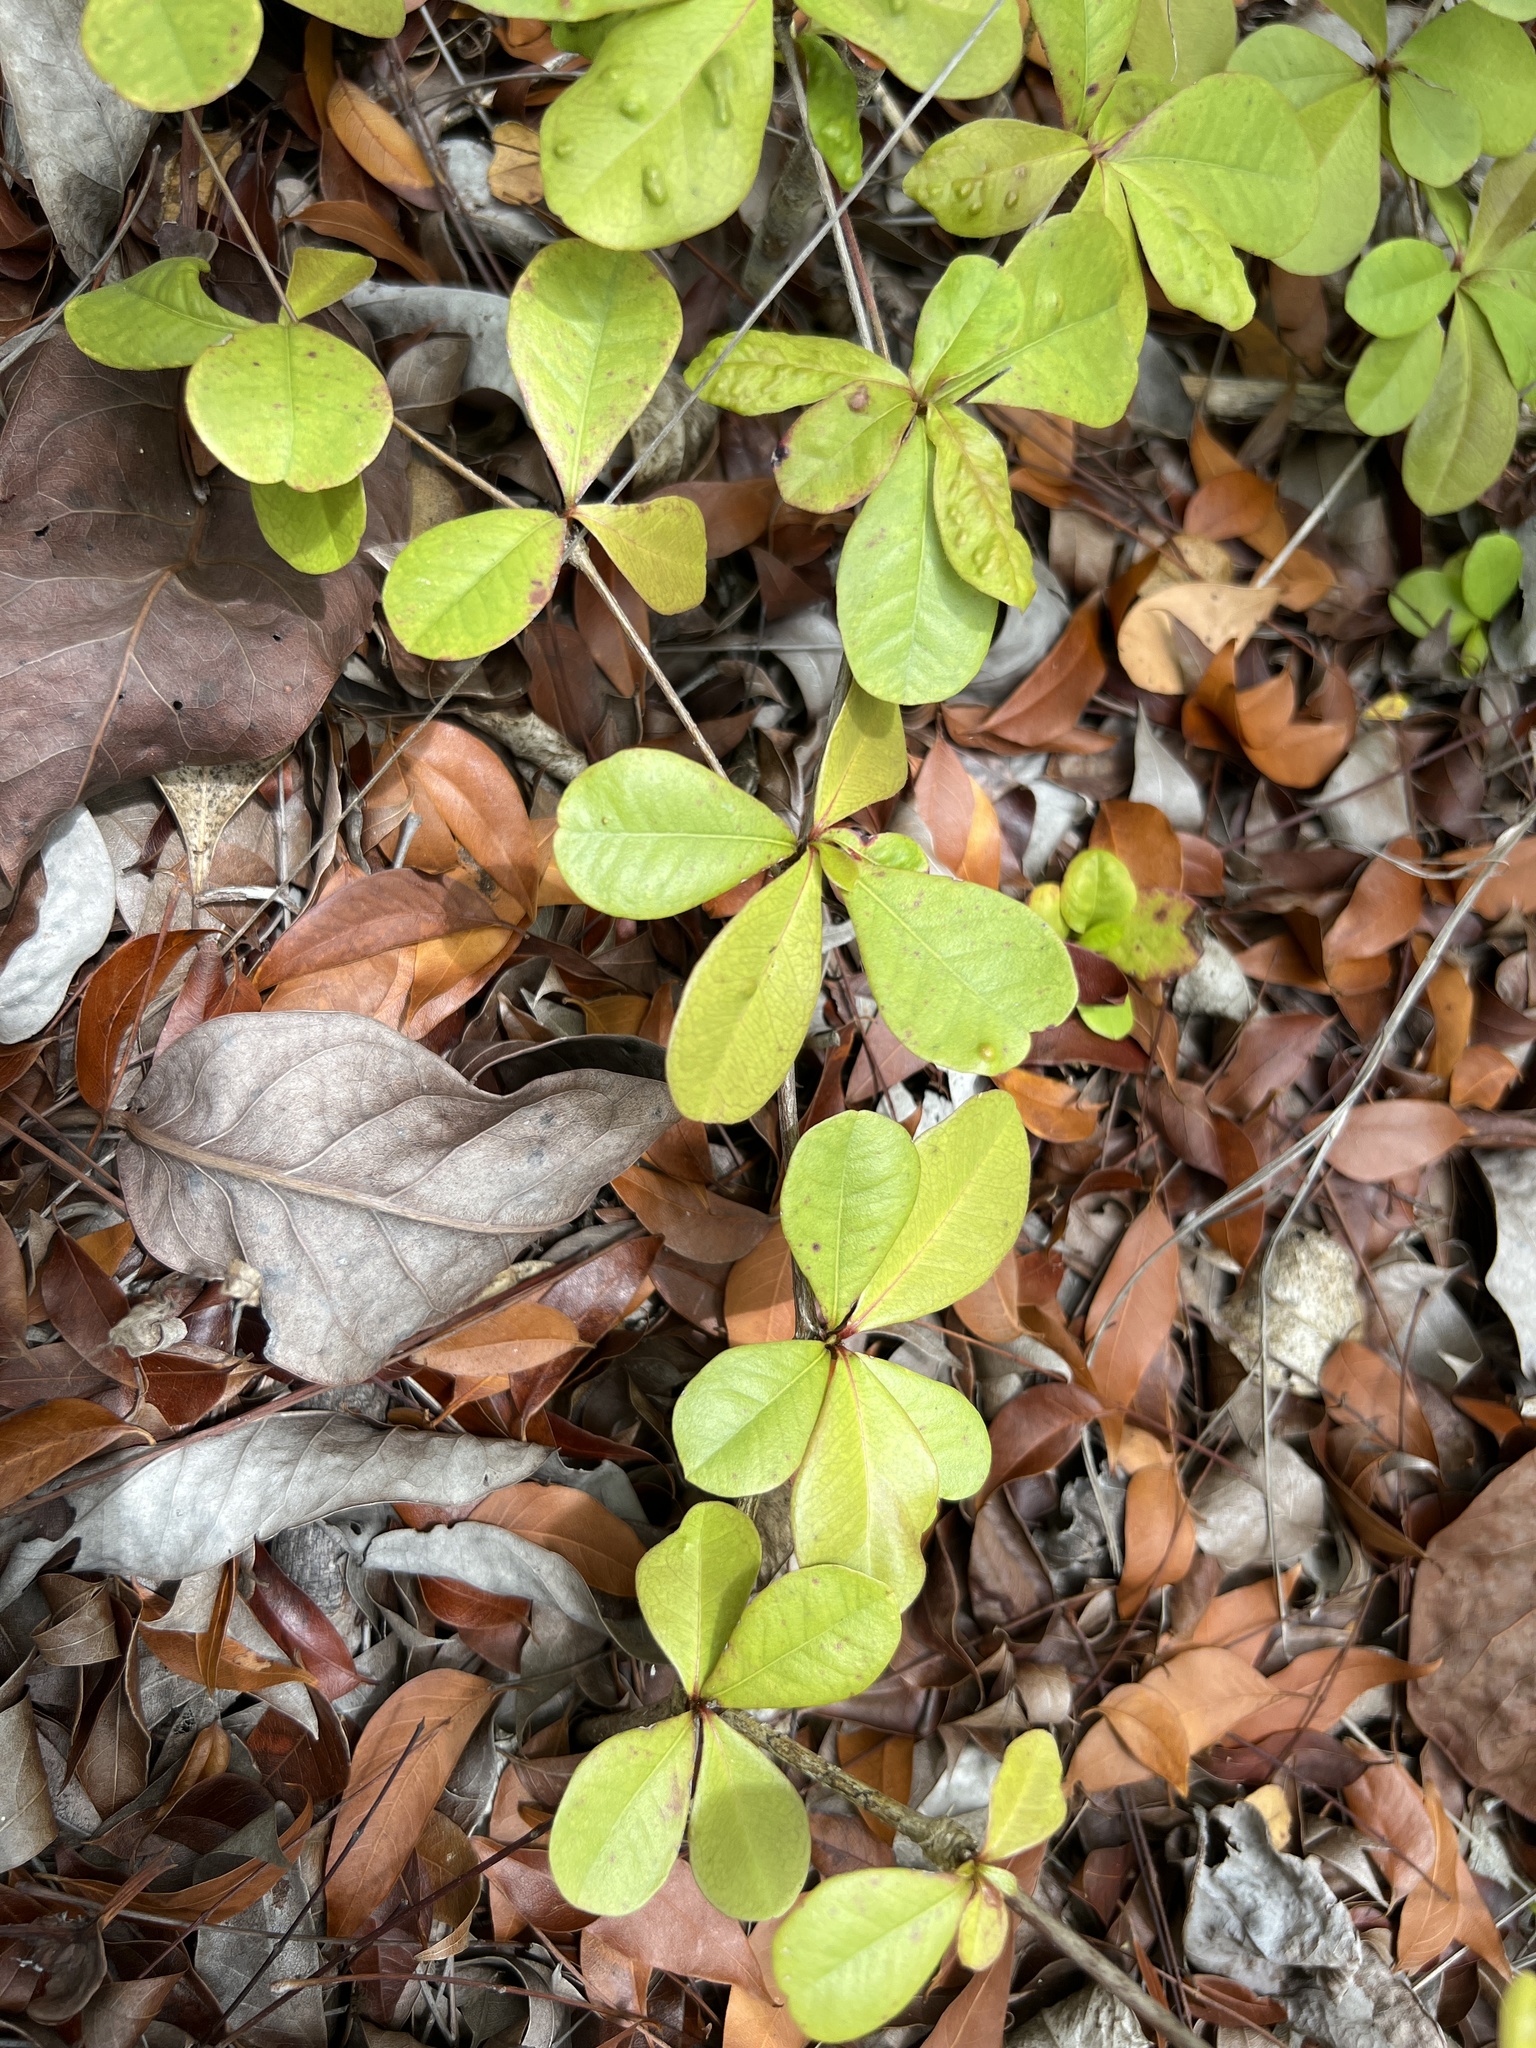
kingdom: Plantae
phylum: Tracheophyta
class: Magnoliopsida
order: Myrtales
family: Combretaceae
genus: Terminalia
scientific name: Terminalia buceras
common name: Black-olive
